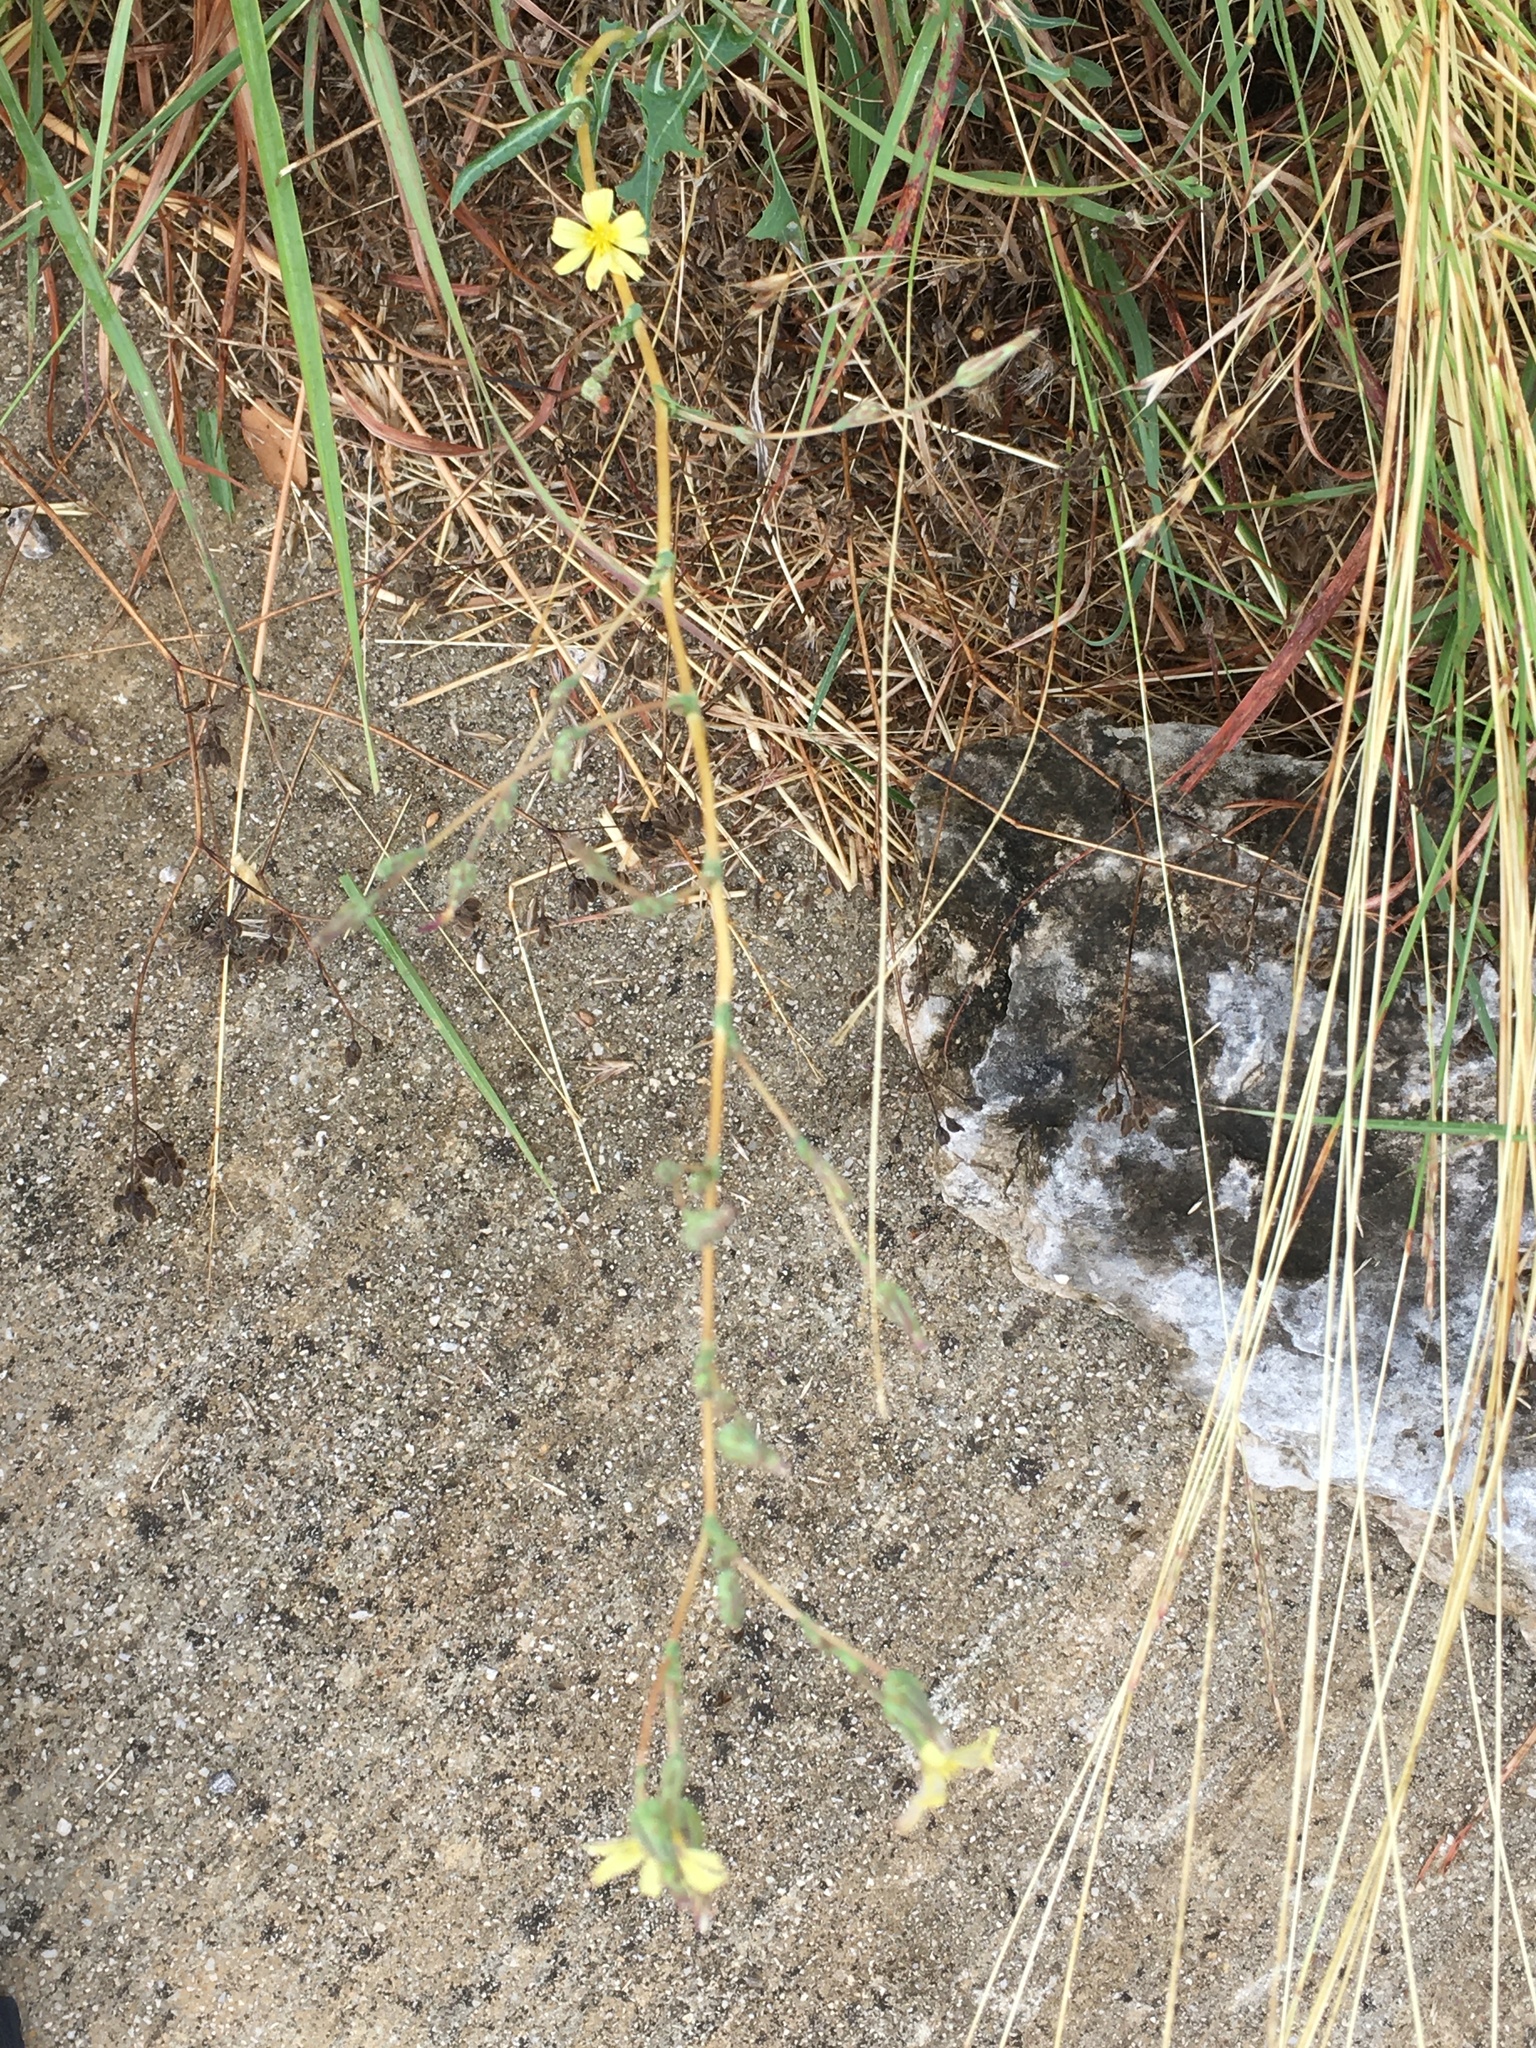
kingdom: Plantae
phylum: Tracheophyta
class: Magnoliopsida
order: Asterales
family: Asteraceae
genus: Lactuca
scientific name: Lactuca serriola
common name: Prickly lettuce
